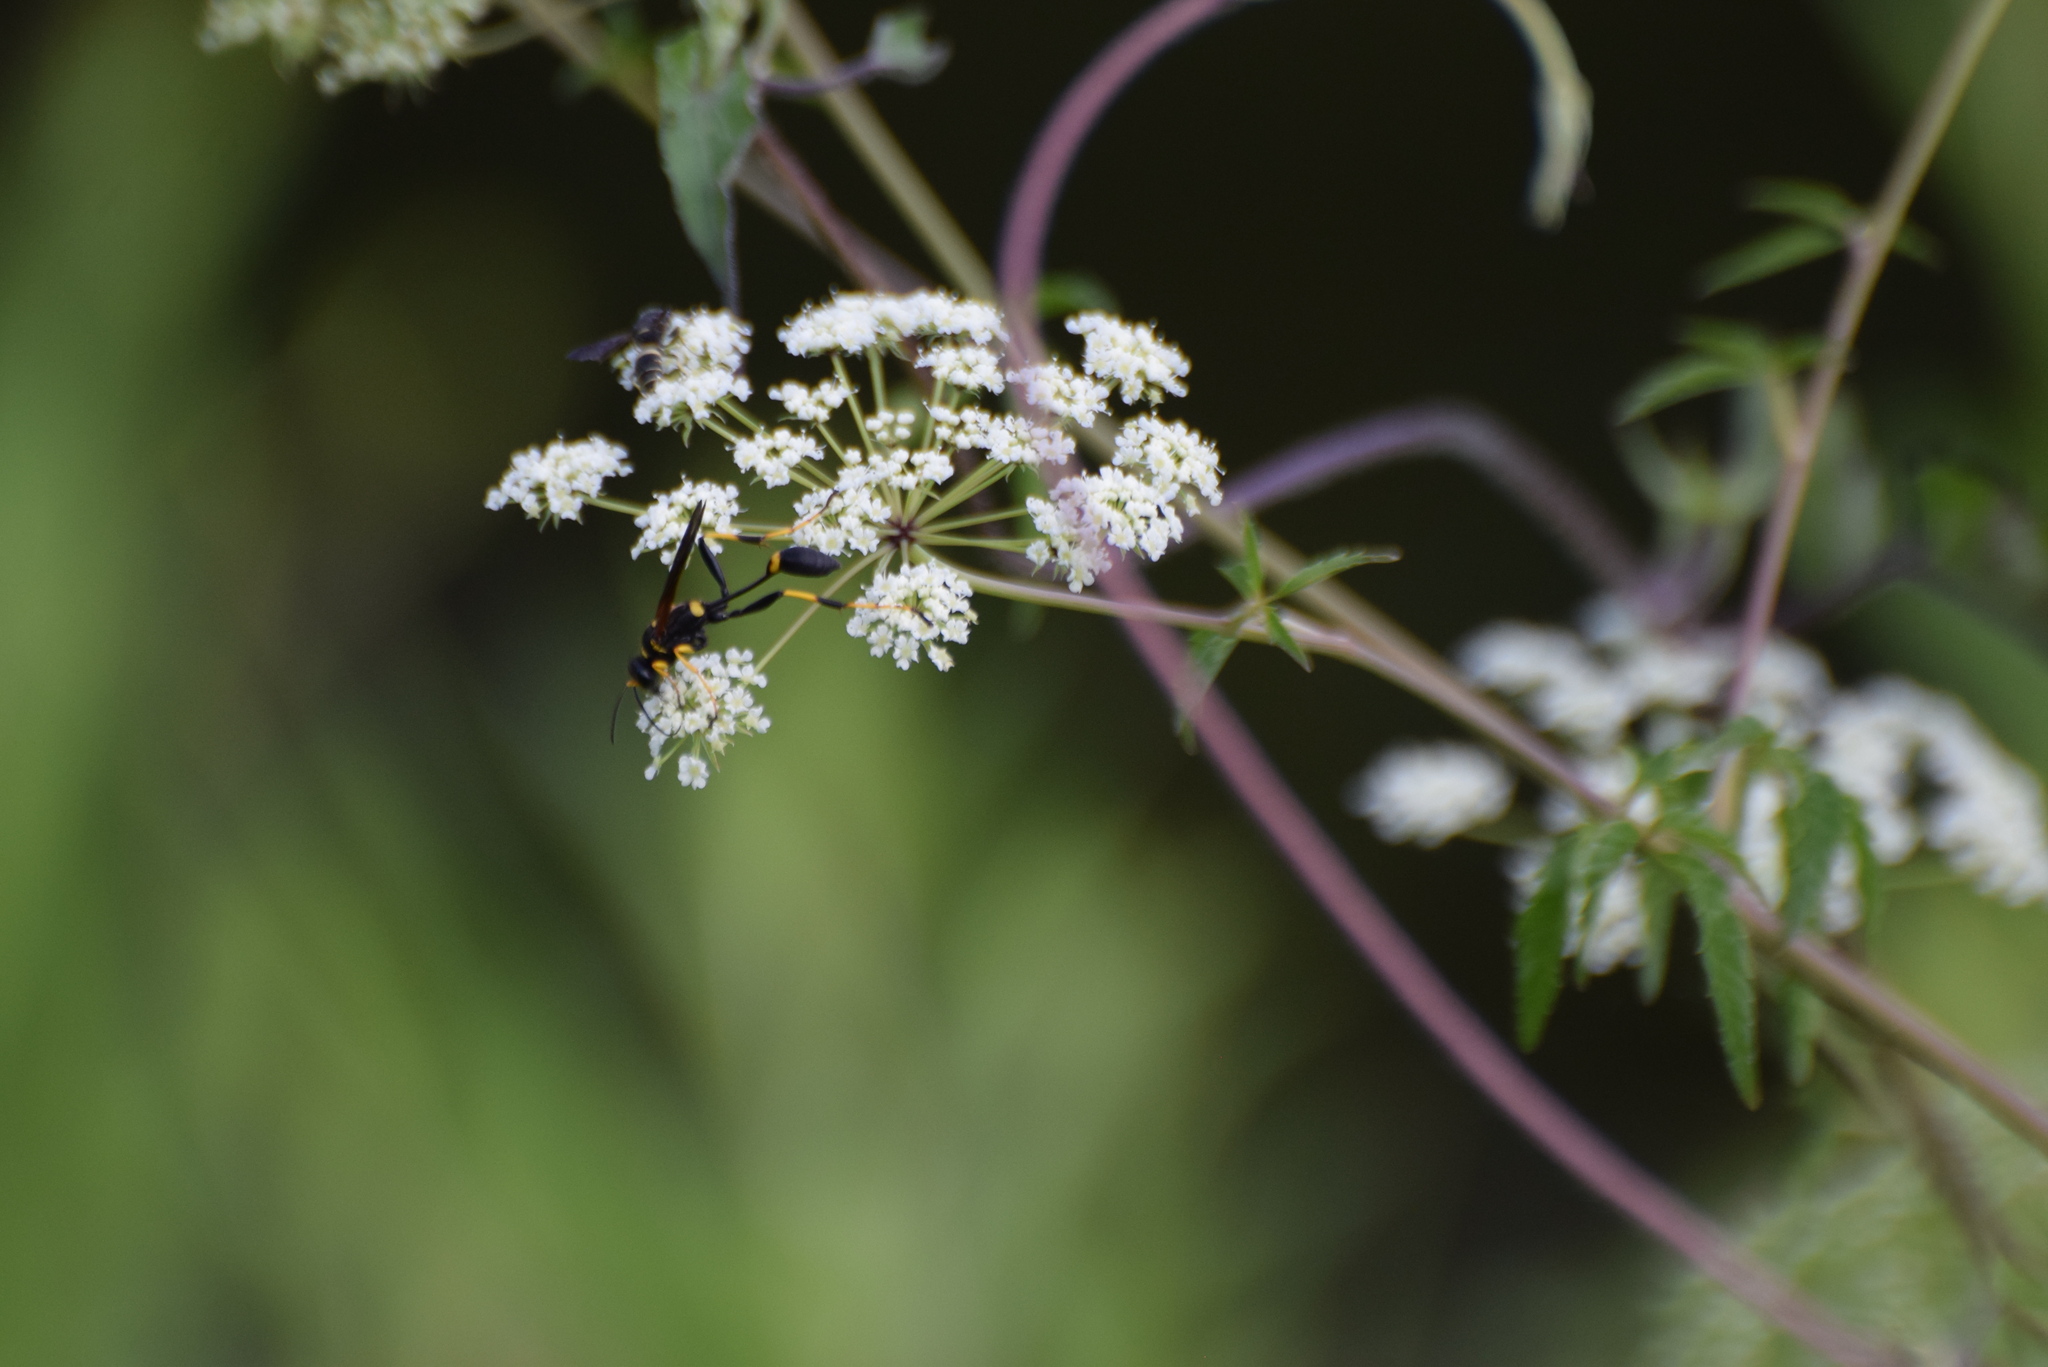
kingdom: Animalia
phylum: Arthropoda
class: Insecta
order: Hymenoptera
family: Sphecidae
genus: Sceliphron
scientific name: Sceliphron caementarium
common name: Mud dauber
